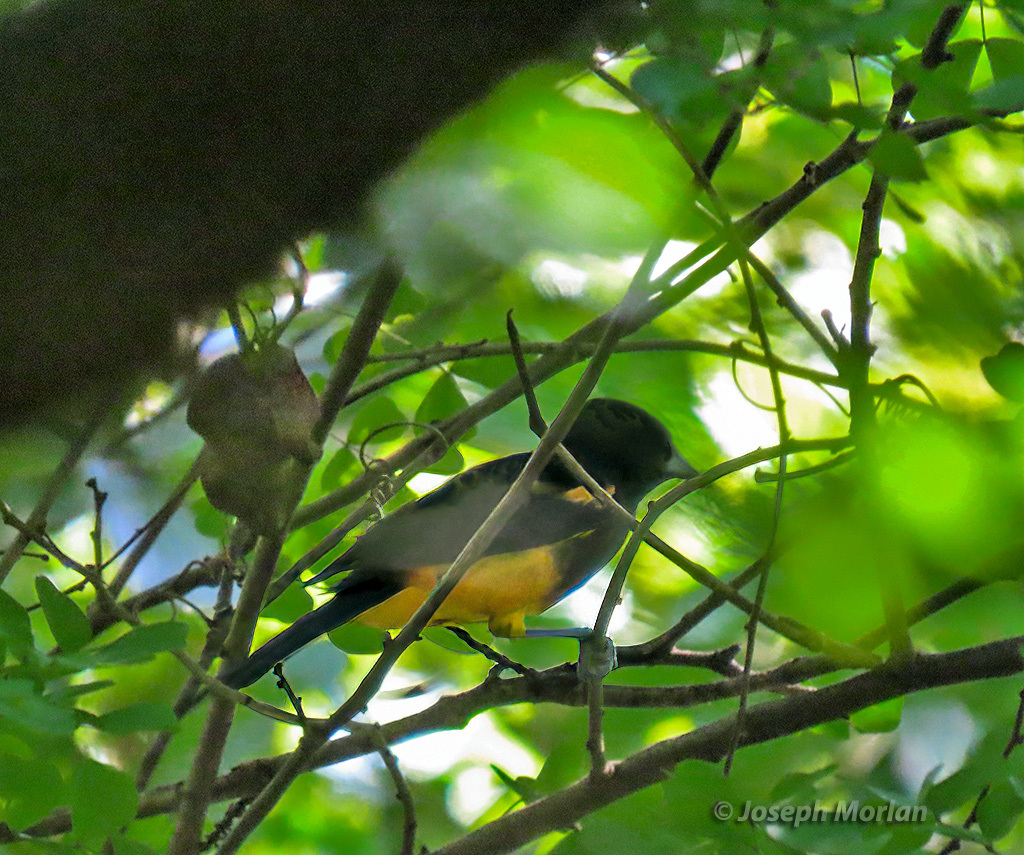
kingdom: Animalia
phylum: Chordata
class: Aves
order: Passeriformes
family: Icteridae
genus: Icterus
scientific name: Icterus laudabilis
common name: St. lucia oriole
